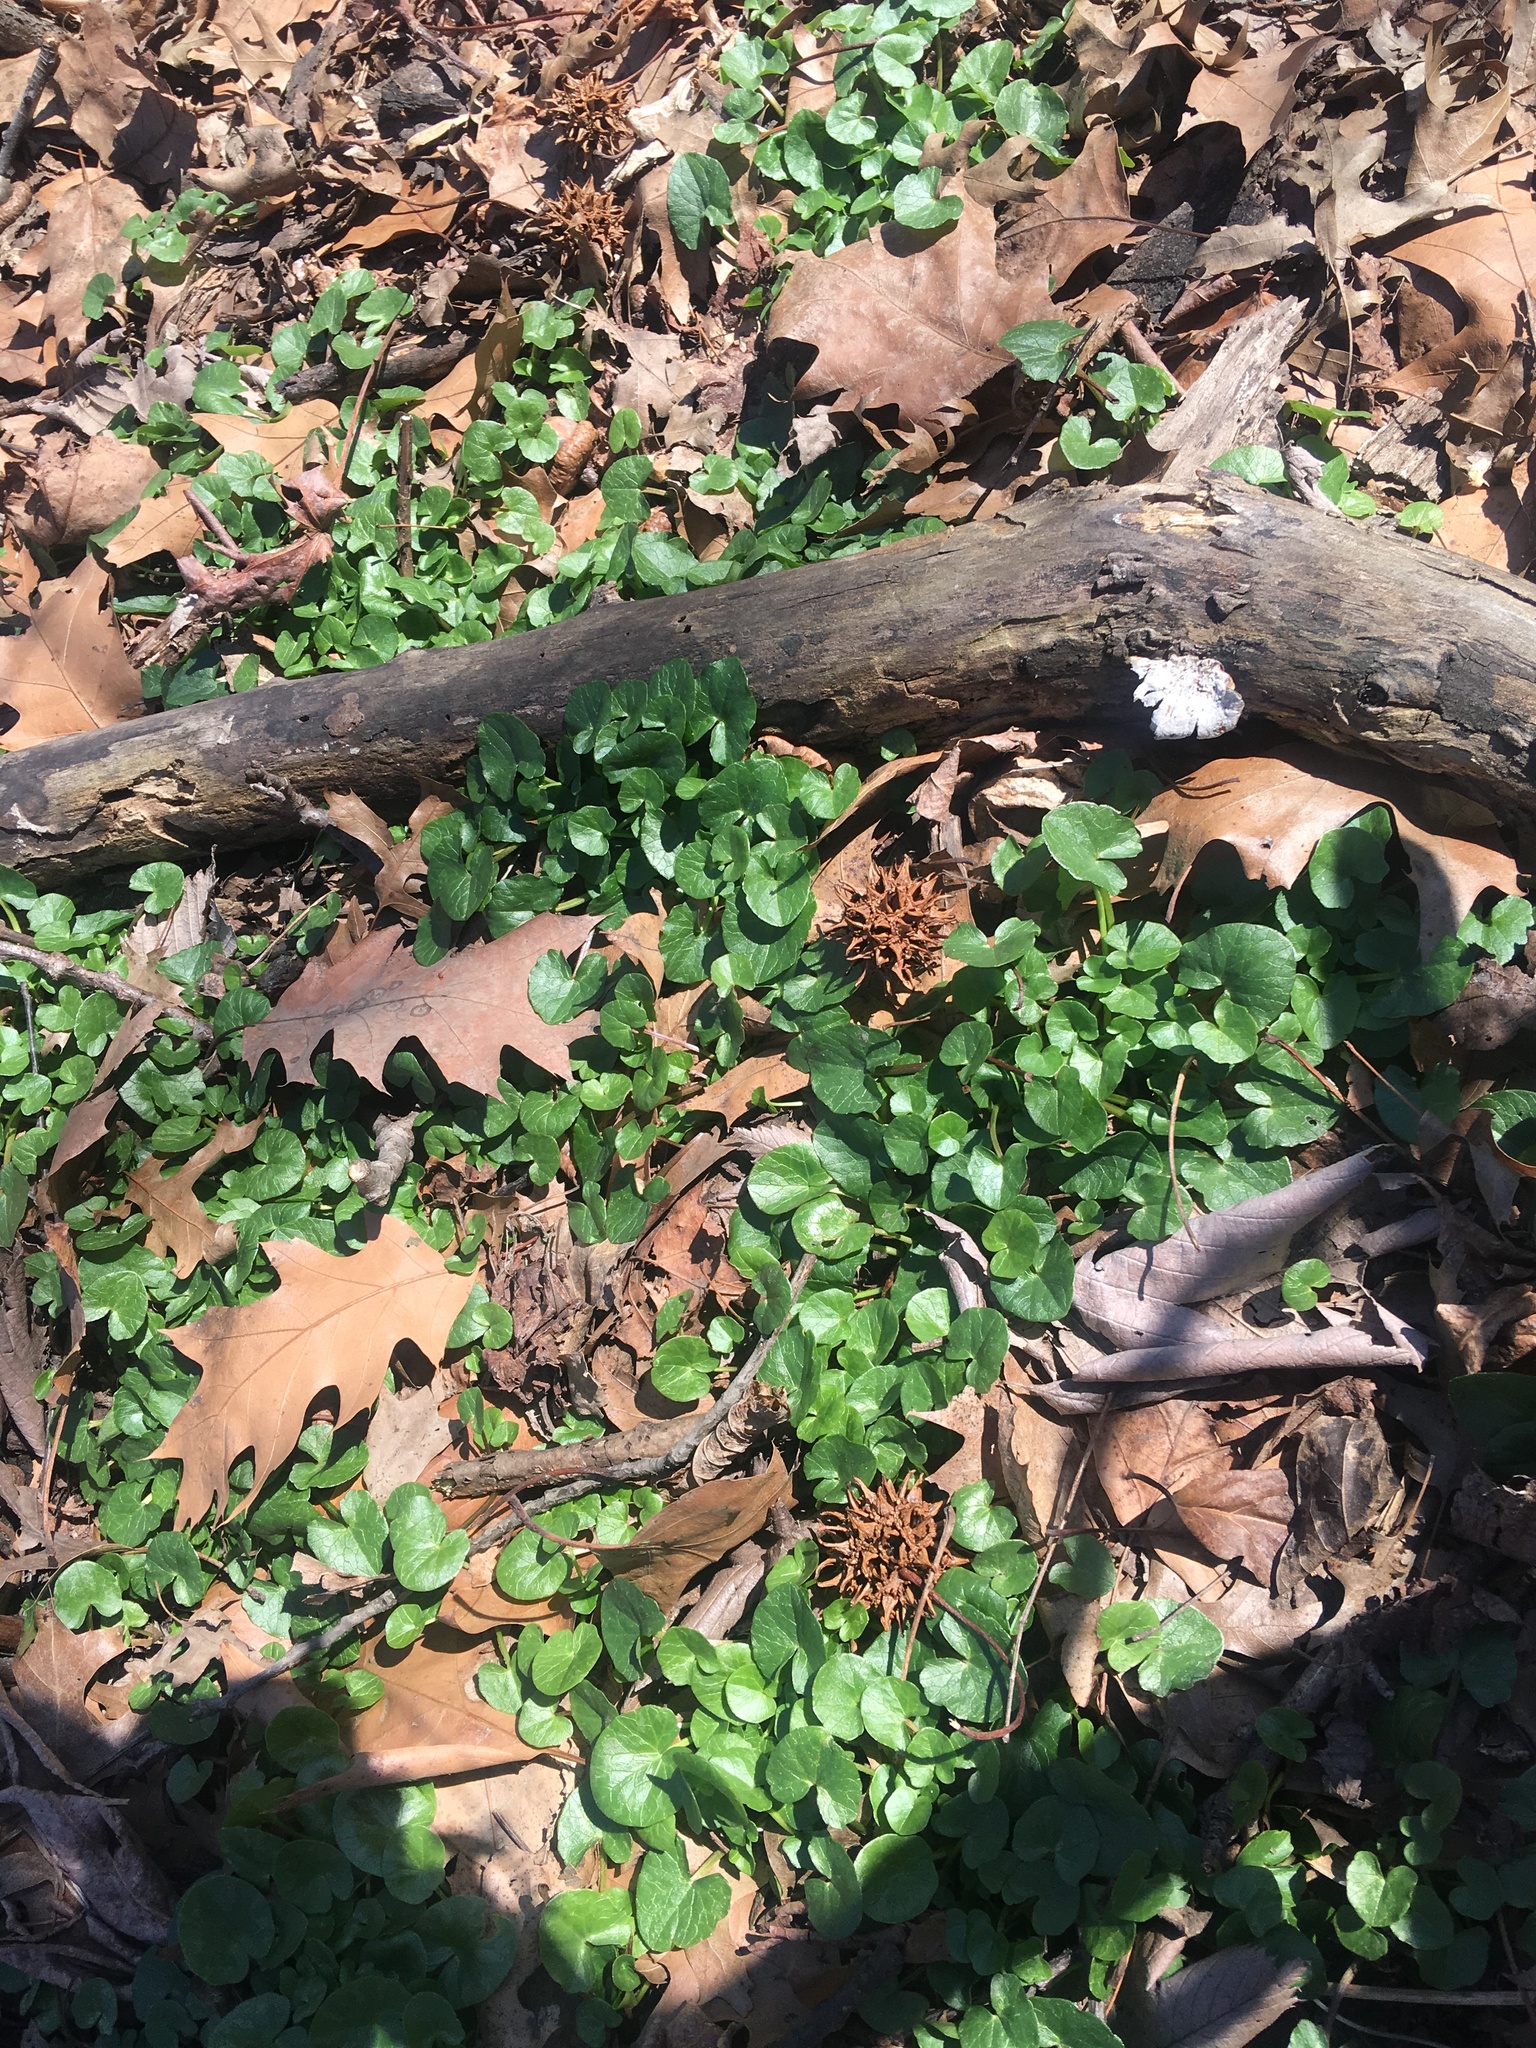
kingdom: Plantae
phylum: Tracheophyta
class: Magnoliopsida
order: Ranunculales
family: Ranunculaceae
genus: Ficaria
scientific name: Ficaria verna
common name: Lesser celandine
